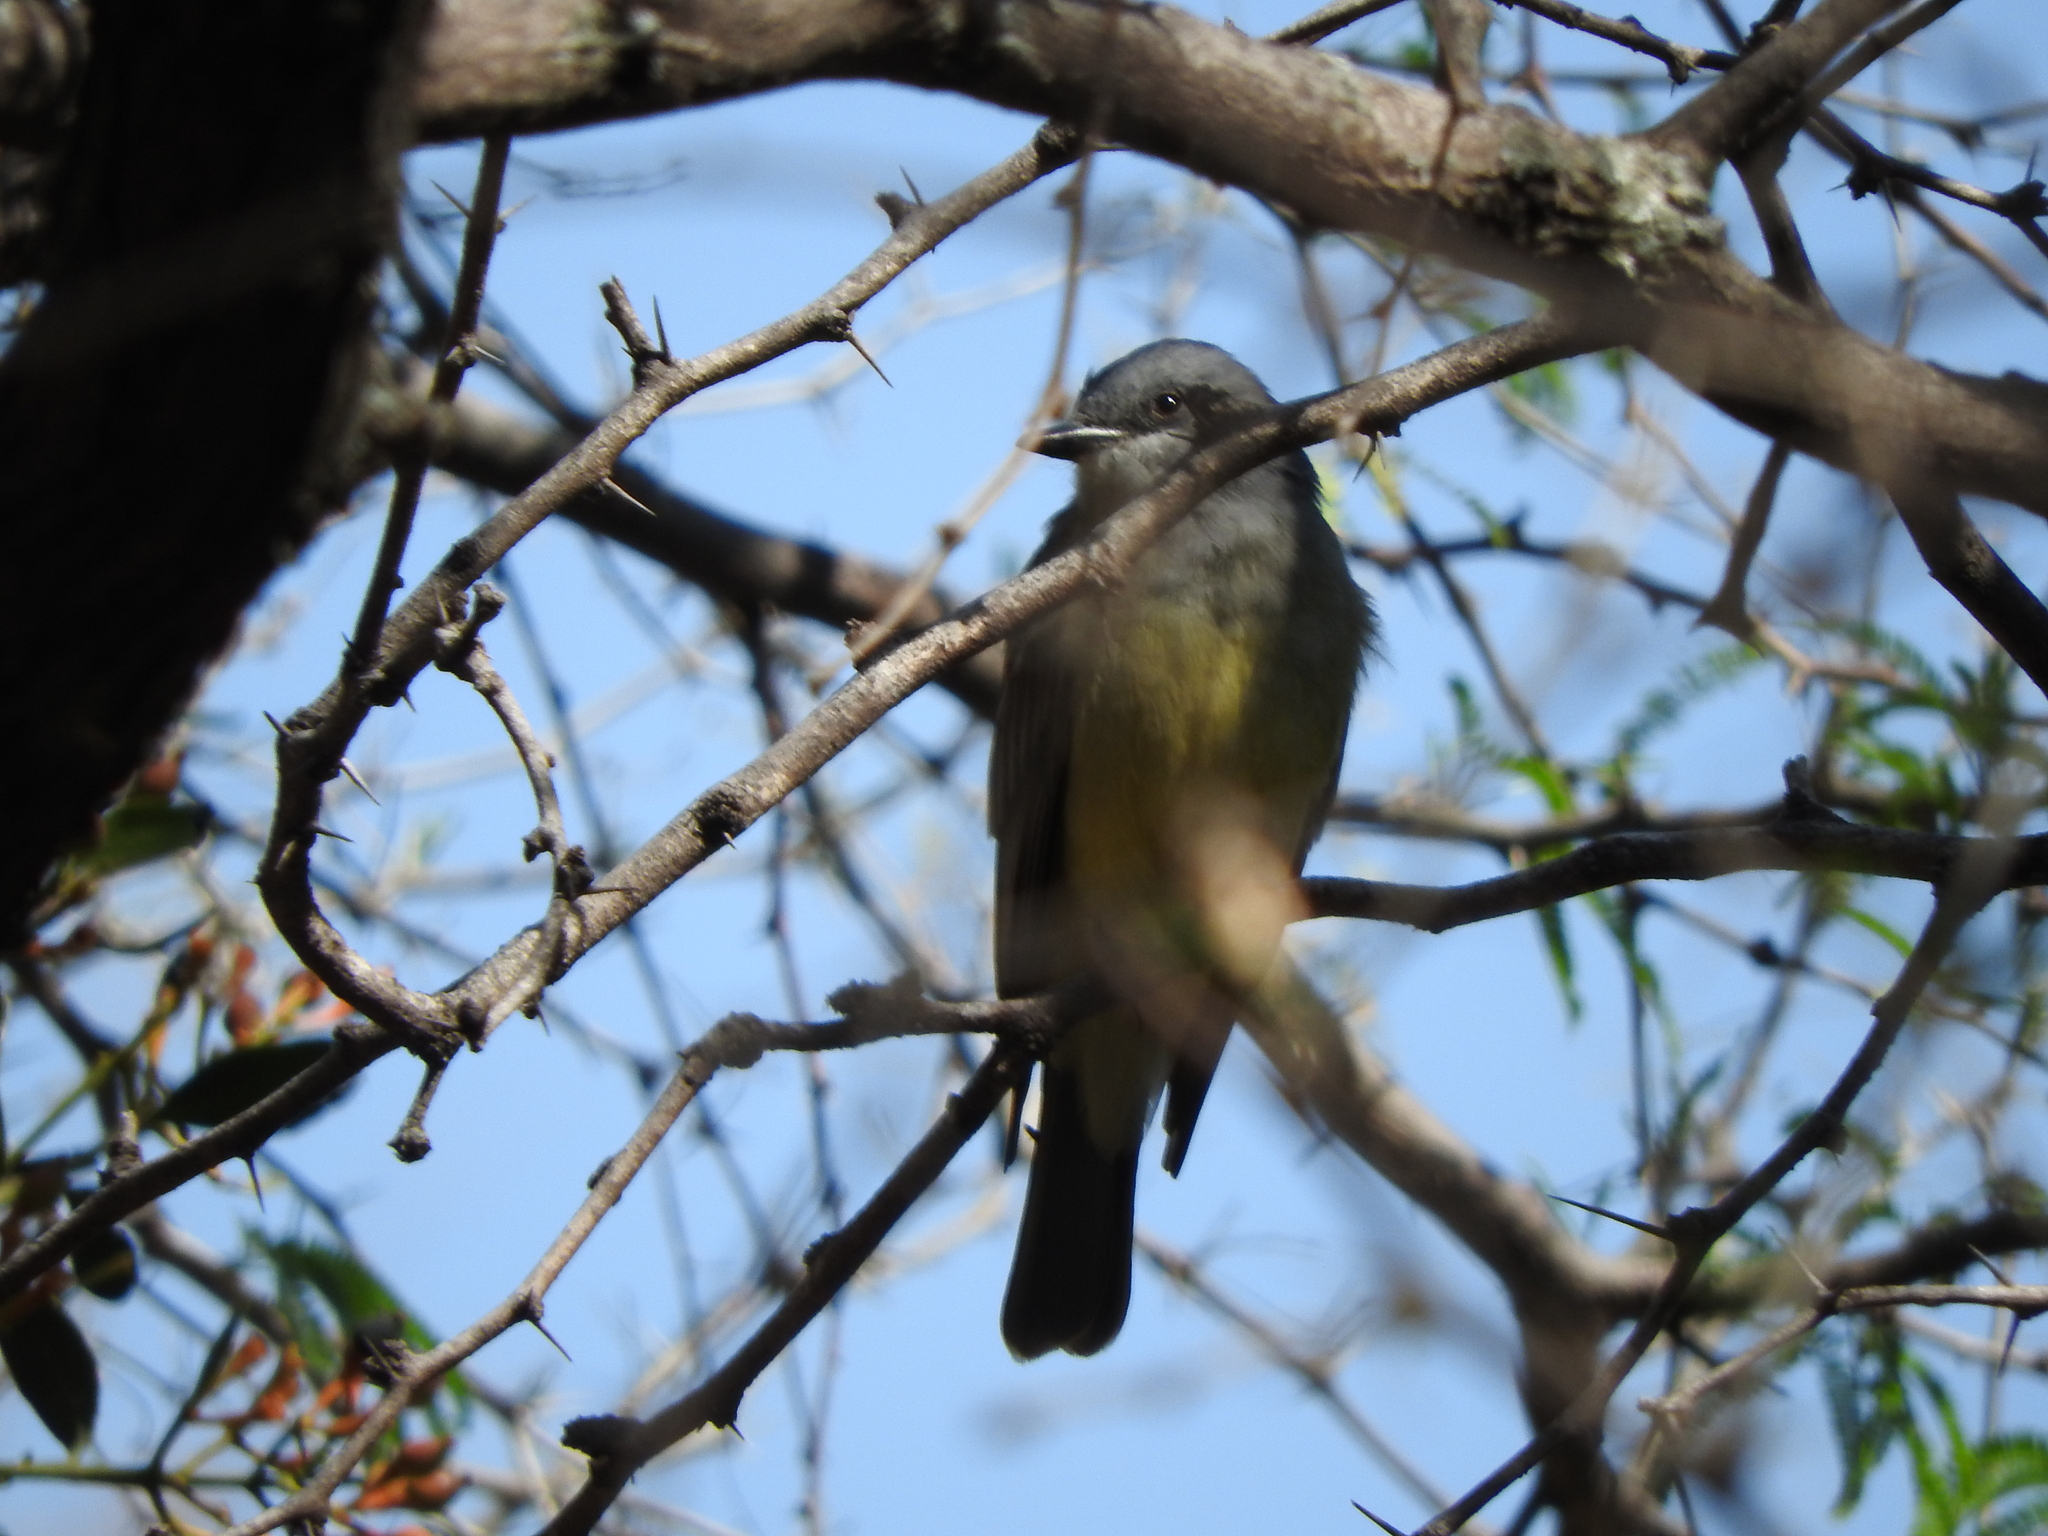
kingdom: Animalia
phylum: Chordata
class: Aves
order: Passeriformes
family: Tyrannidae
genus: Tyrannus
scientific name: Tyrannus vociferans
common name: Cassin's kingbird
